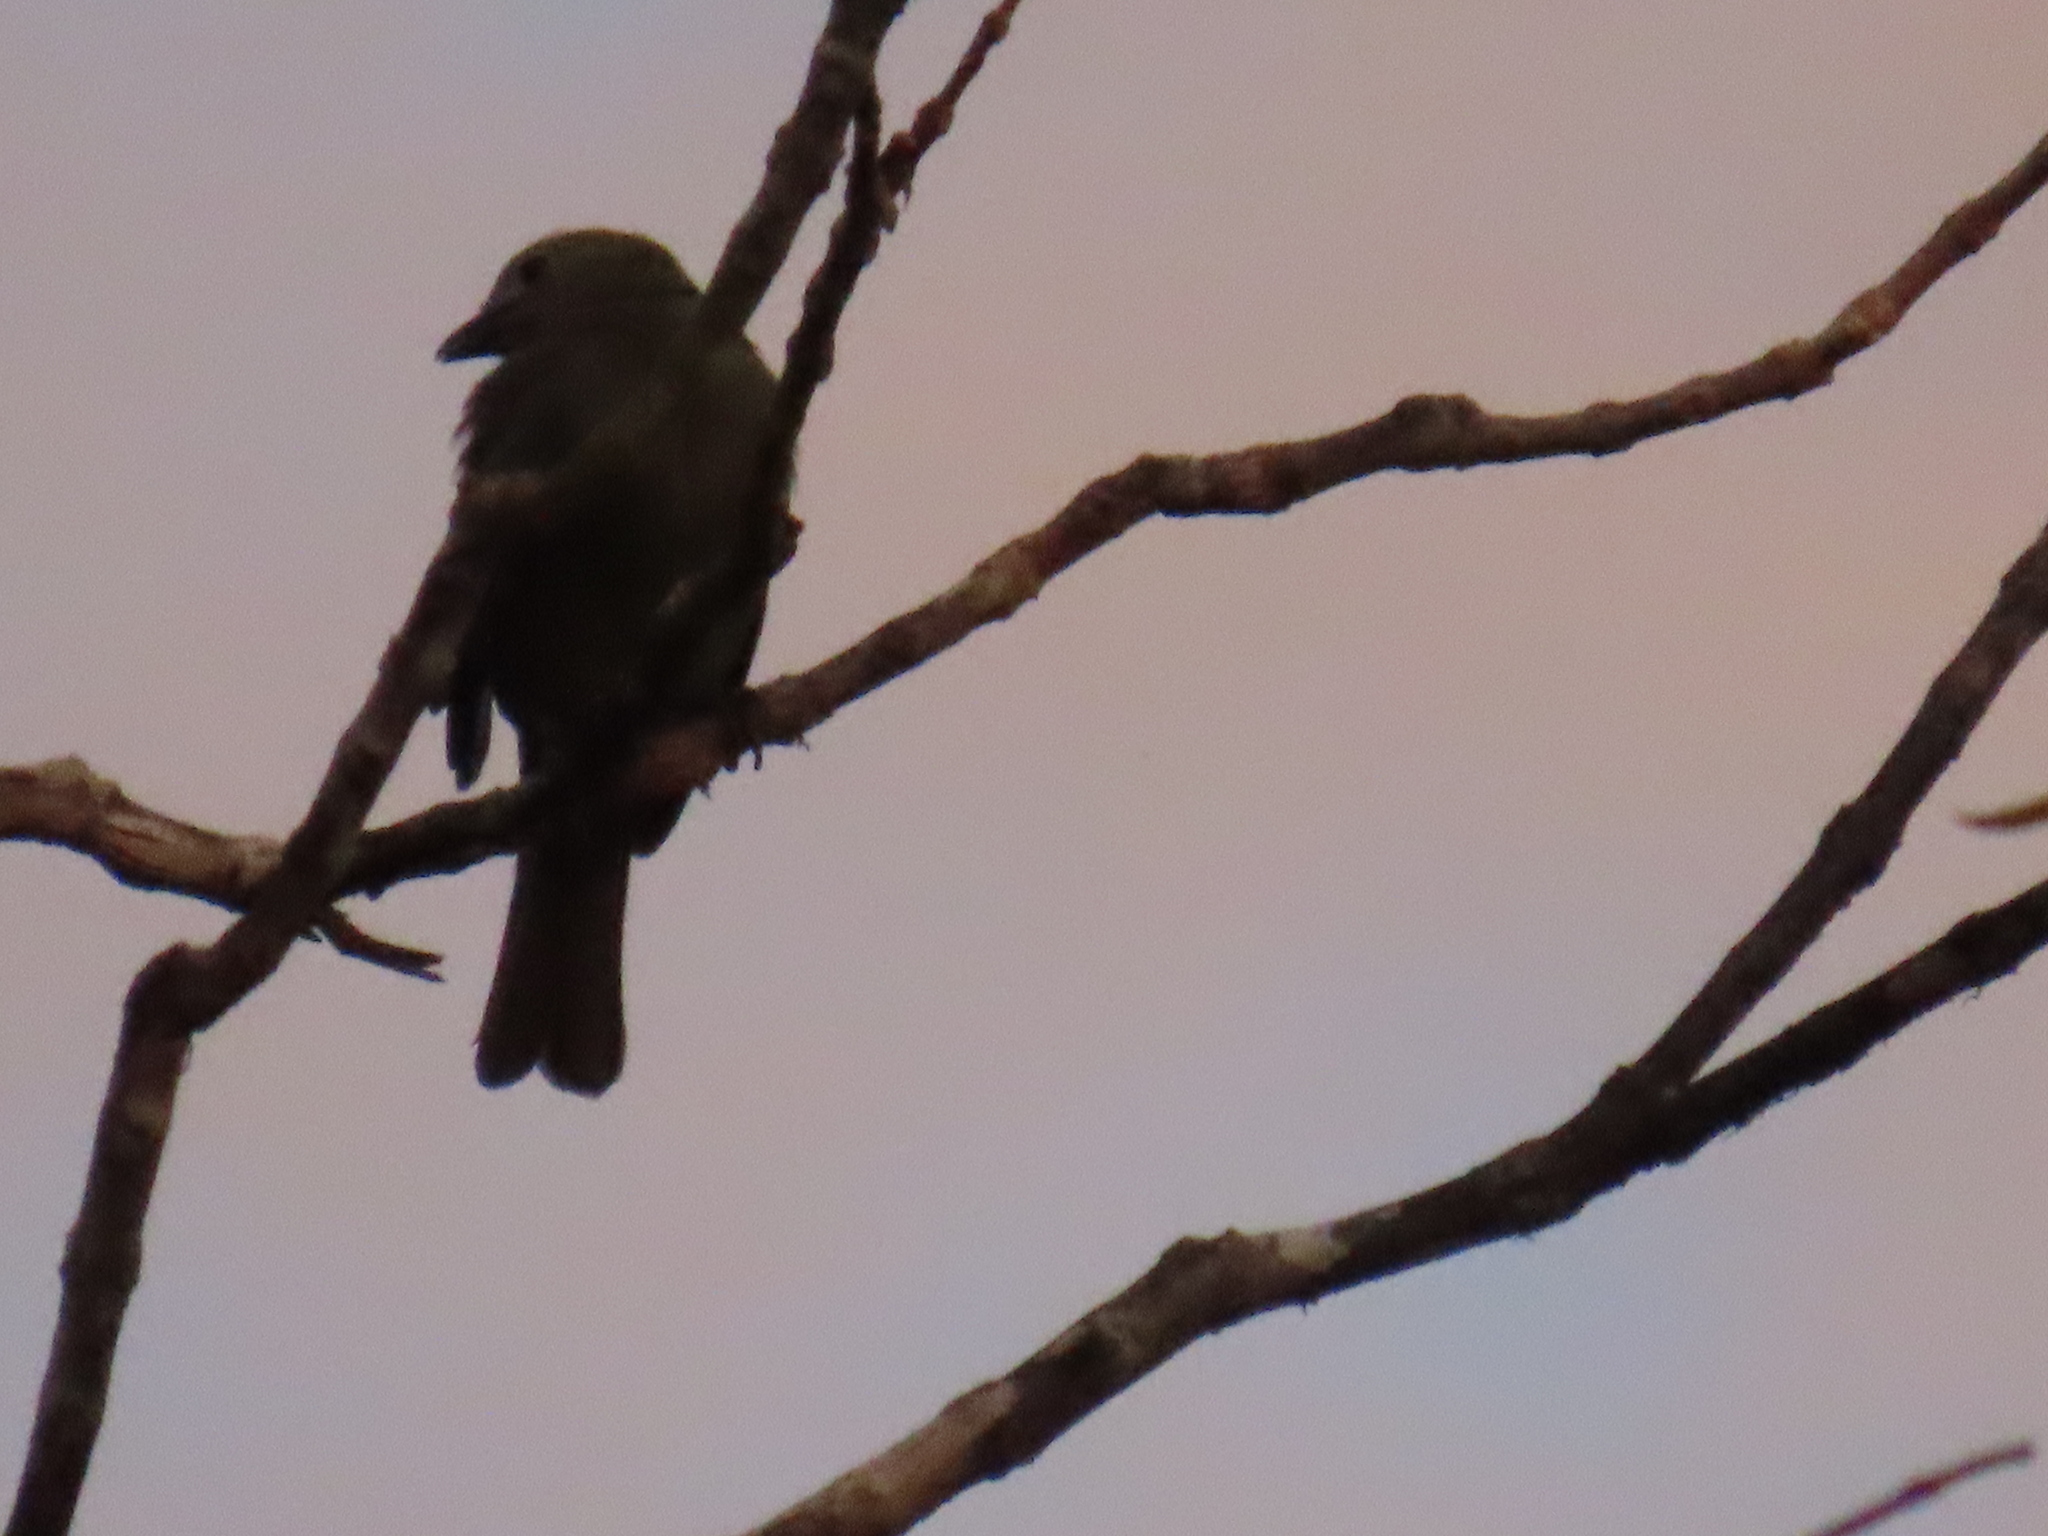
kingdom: Animalia
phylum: Chordata
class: Aves
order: Passeriformes
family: Thraupidae
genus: Thraupis
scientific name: Thraupis palmarum
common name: Palm tanager
